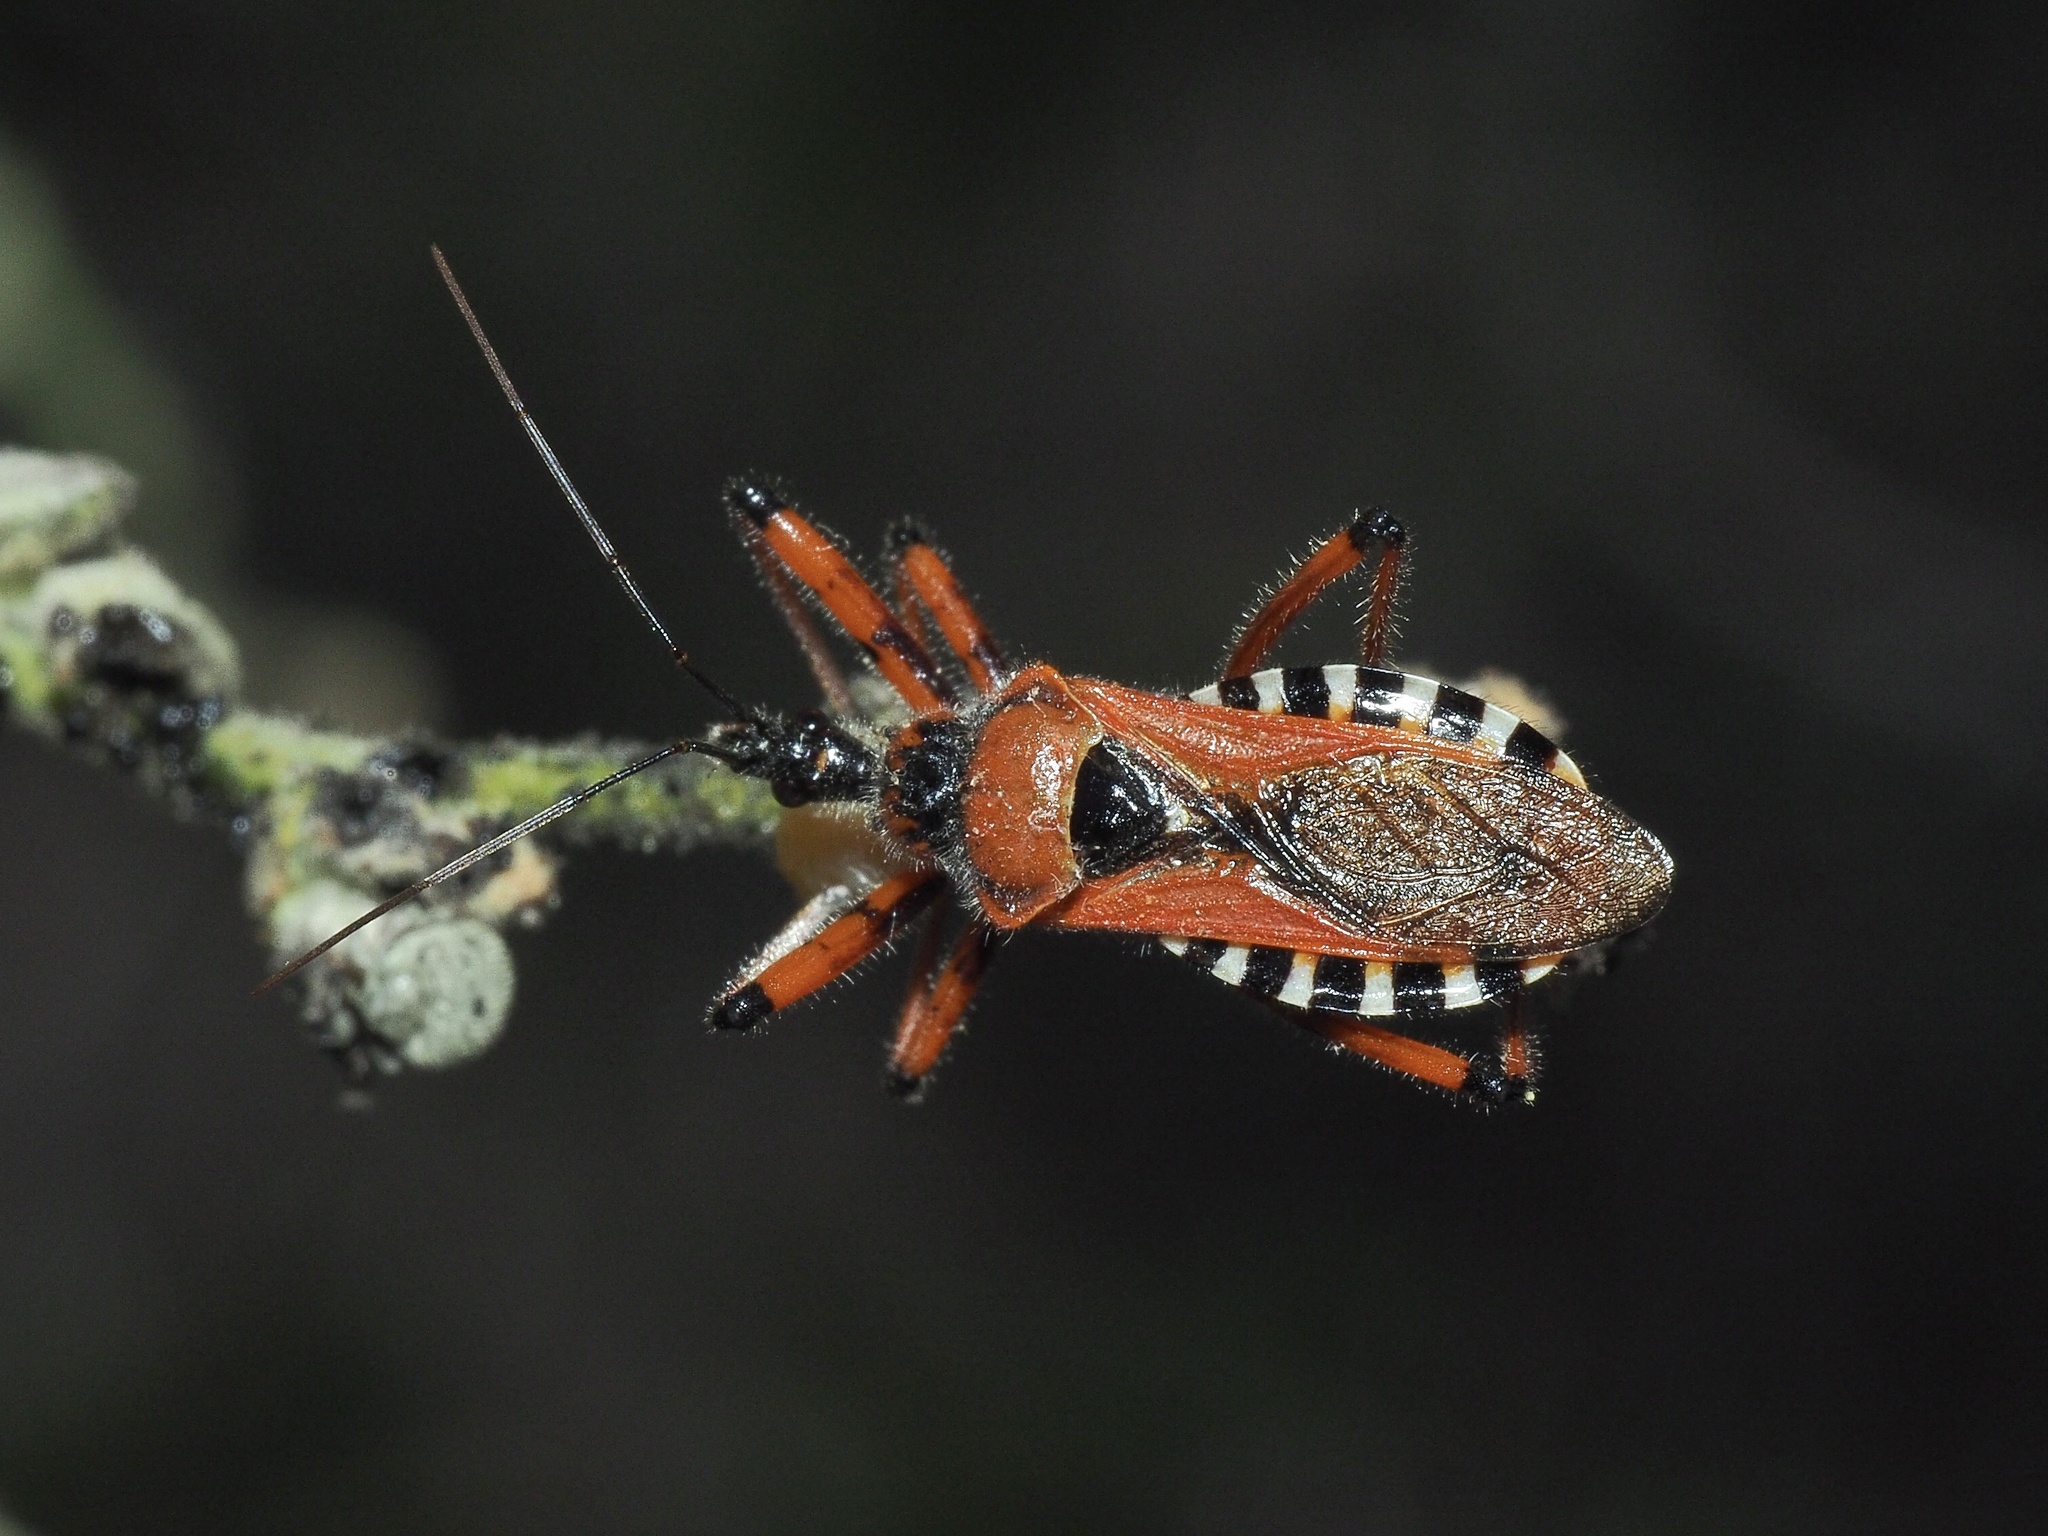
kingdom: Animalia
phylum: Arthropoda
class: Insecta
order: Hemiptera
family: Reduviidae
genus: Rhynocoris
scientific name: Rhynocoris iracundus
